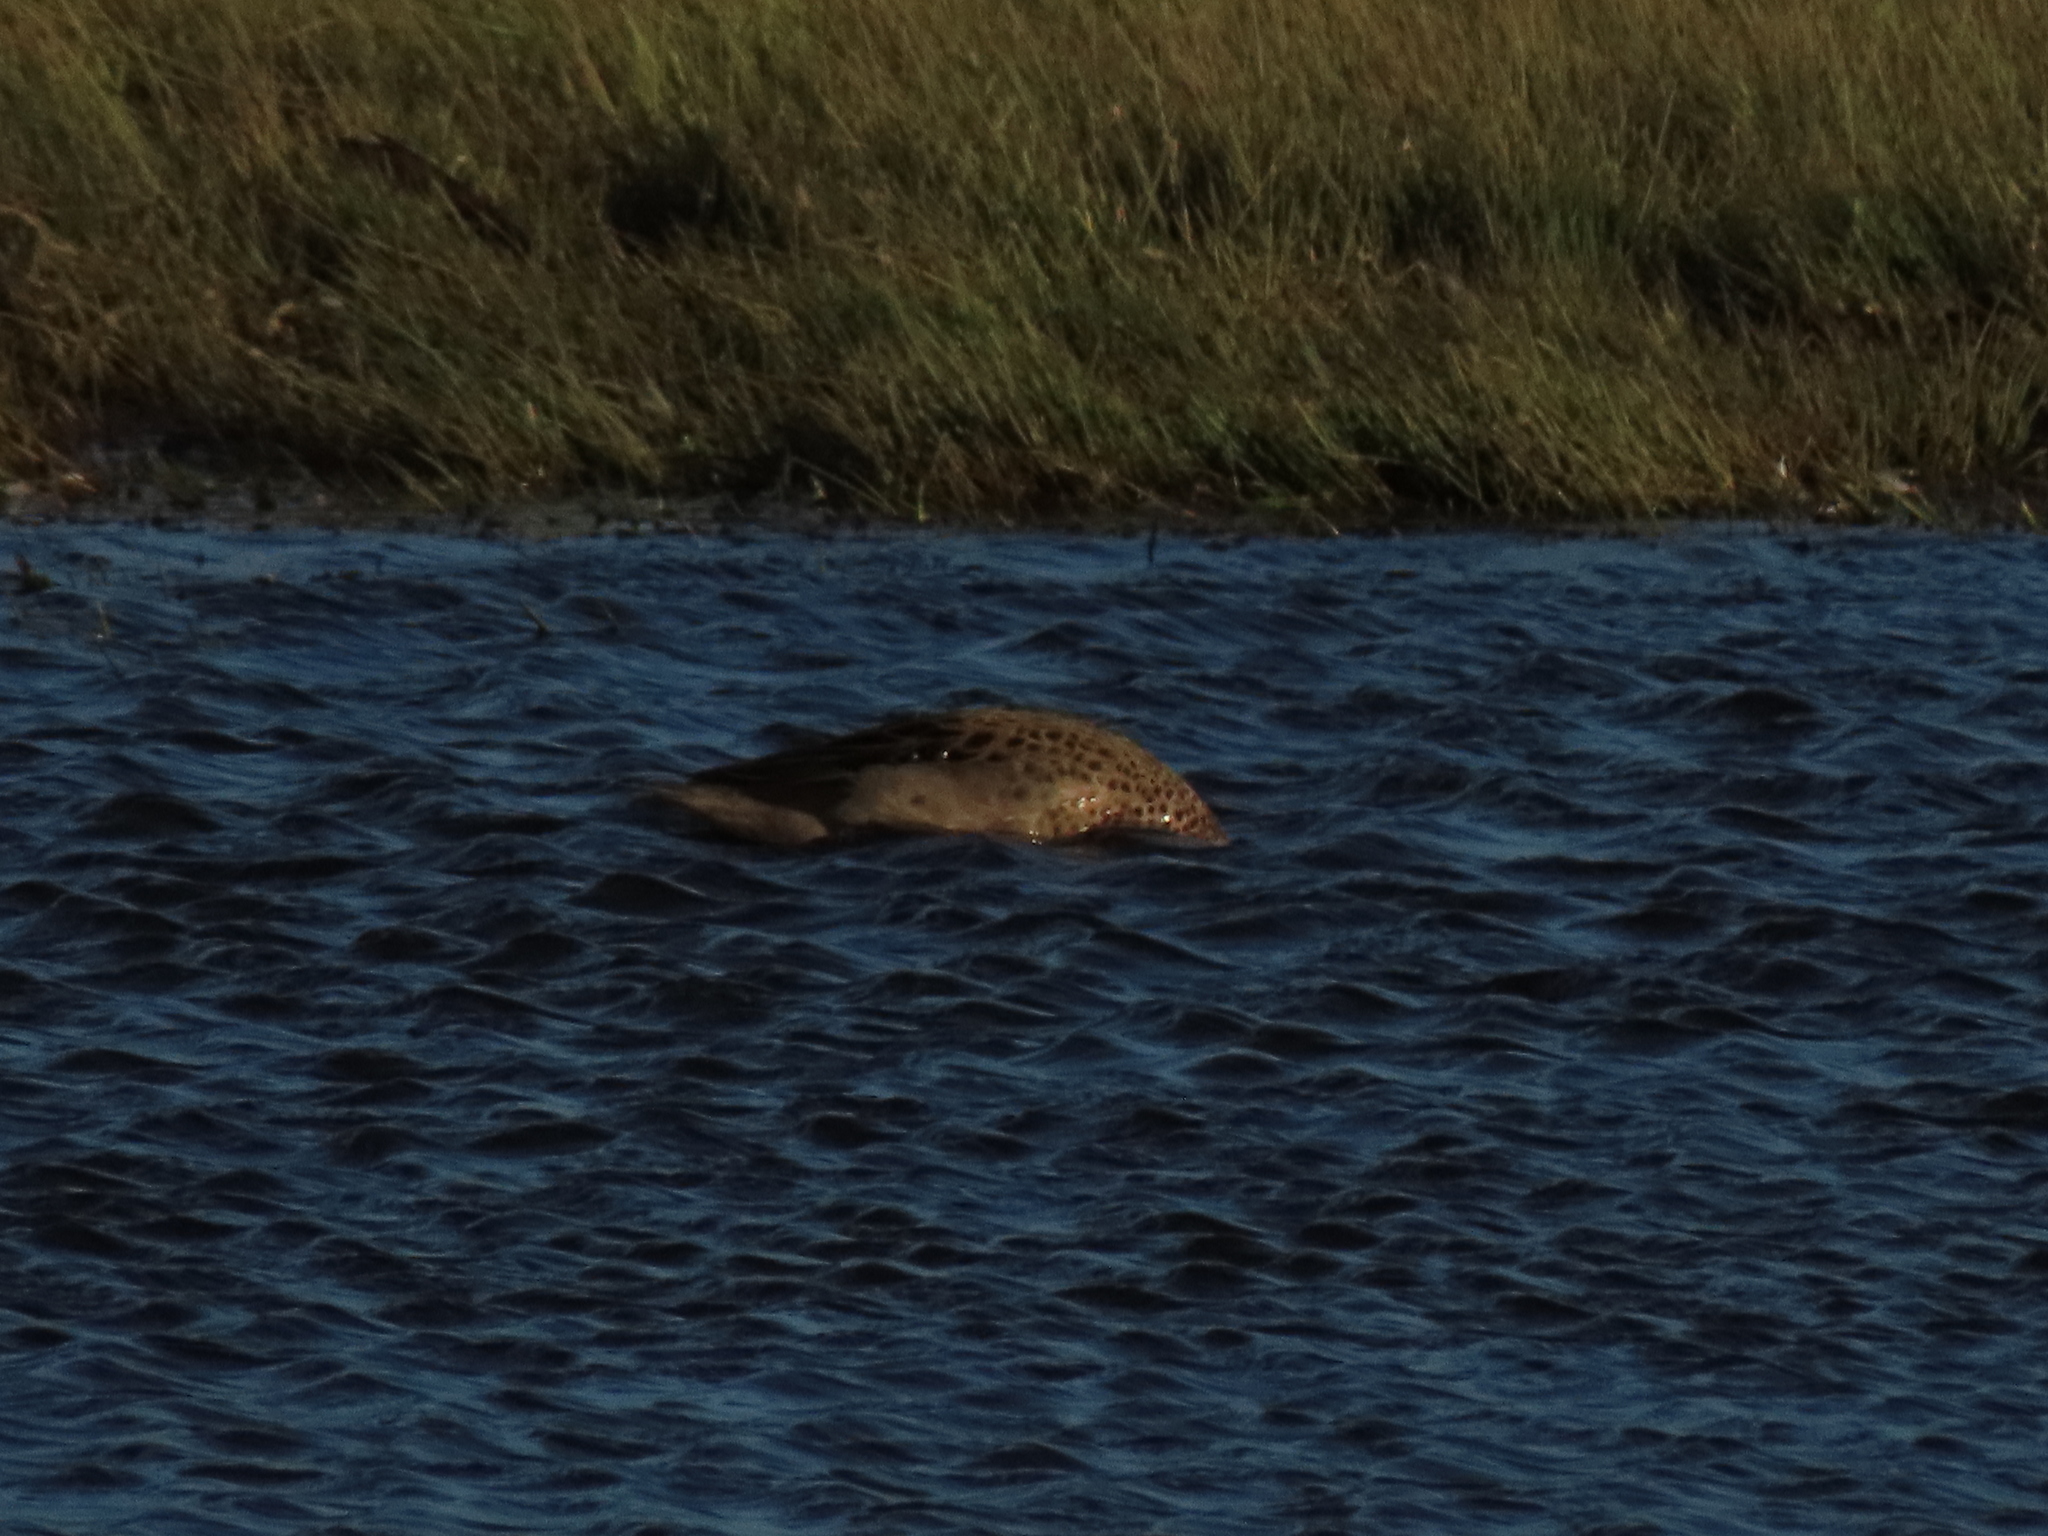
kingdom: Animalia
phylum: Chordata
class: Aves
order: Anseriformes
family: Anatidae
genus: Anas
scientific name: Anas flavirostris
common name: Yellow-billed teal
